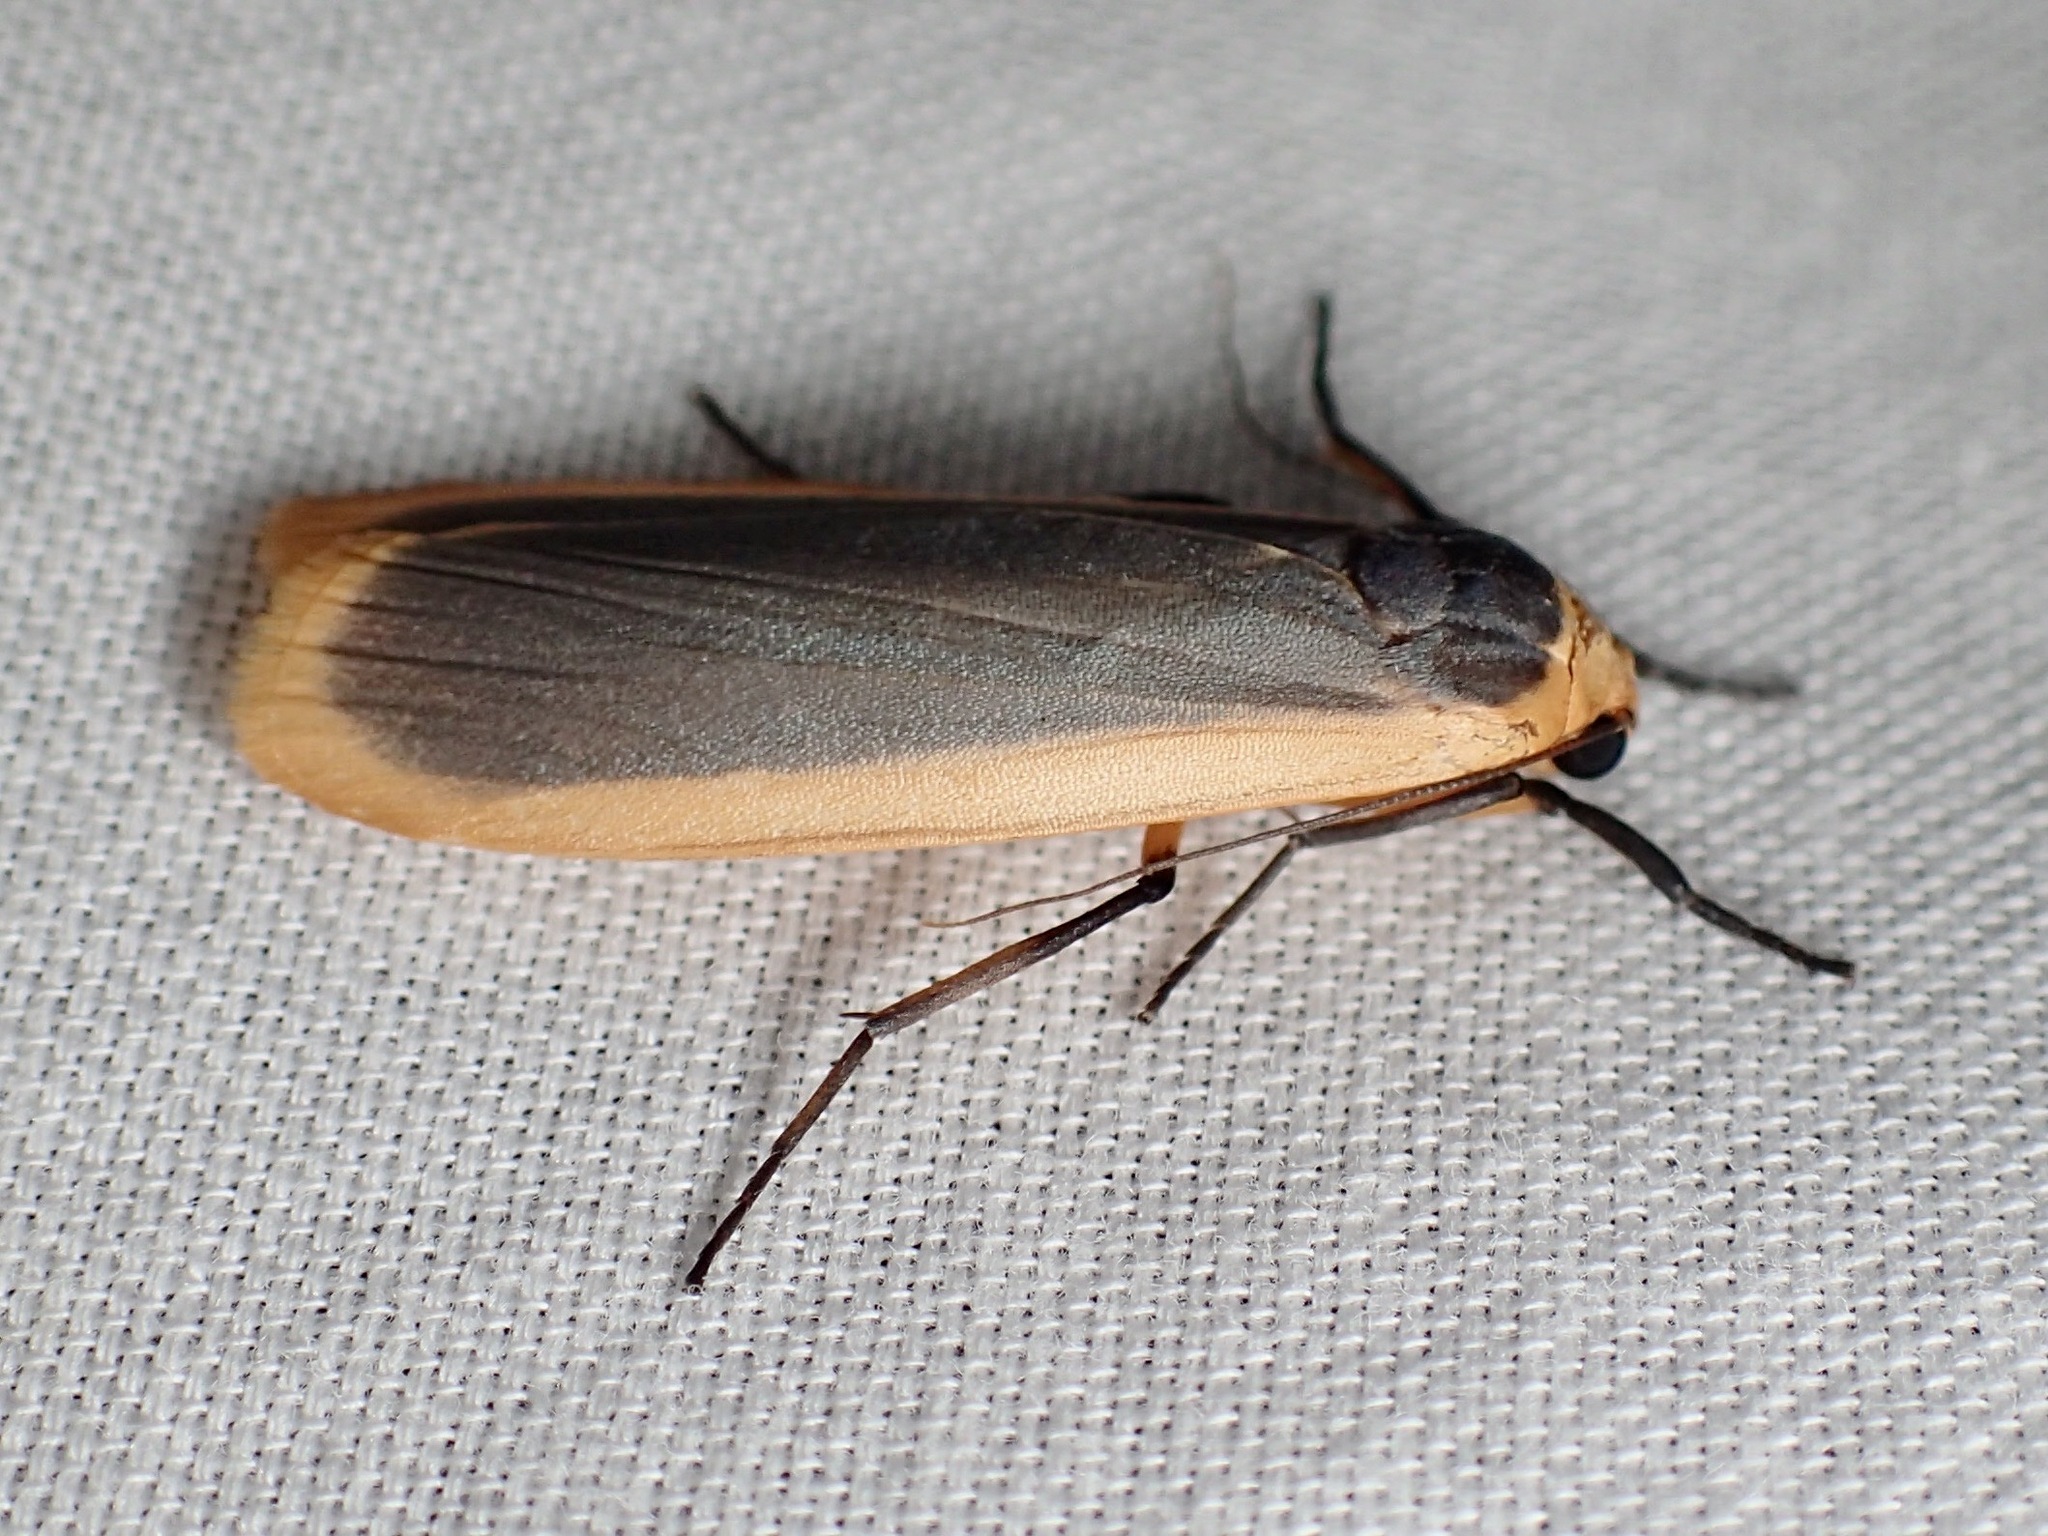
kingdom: Animalia
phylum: Arthropoda
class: Insecta
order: Lepidoptera
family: Erebidae
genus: Brunia
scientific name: Brunia dorsalis
